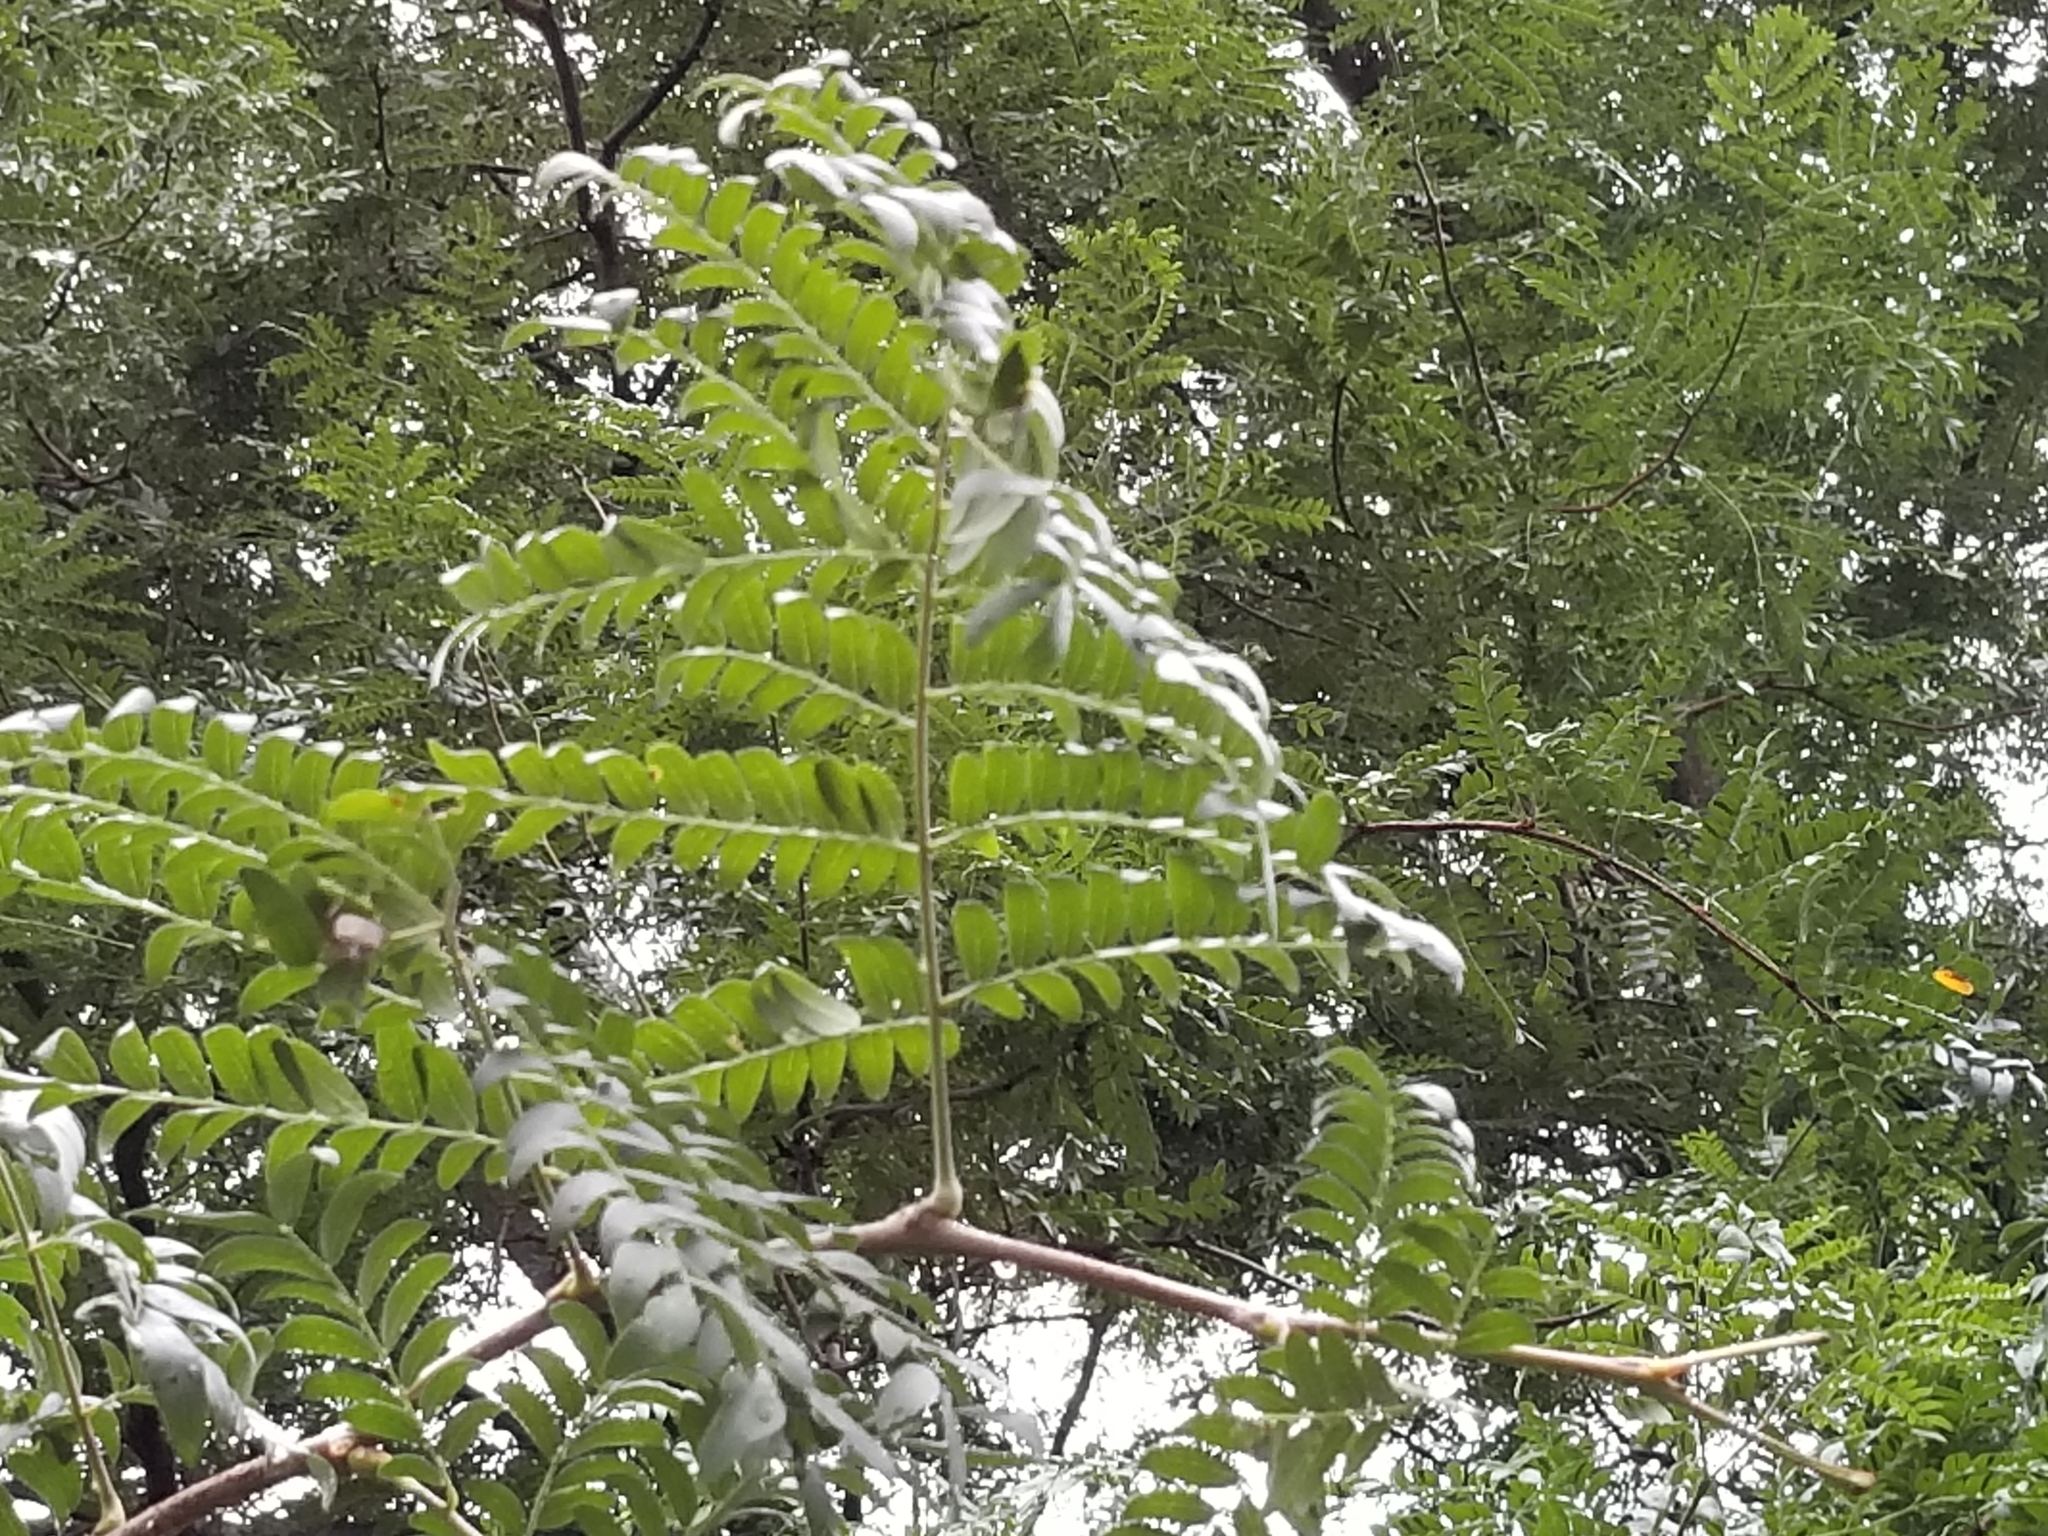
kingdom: Plantae
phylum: Tracheophyta
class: Magnoliopsida
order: Fabales
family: Fabaceae
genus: Gleditsia
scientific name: Gleditsia triacanthos
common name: Common honeylocust
